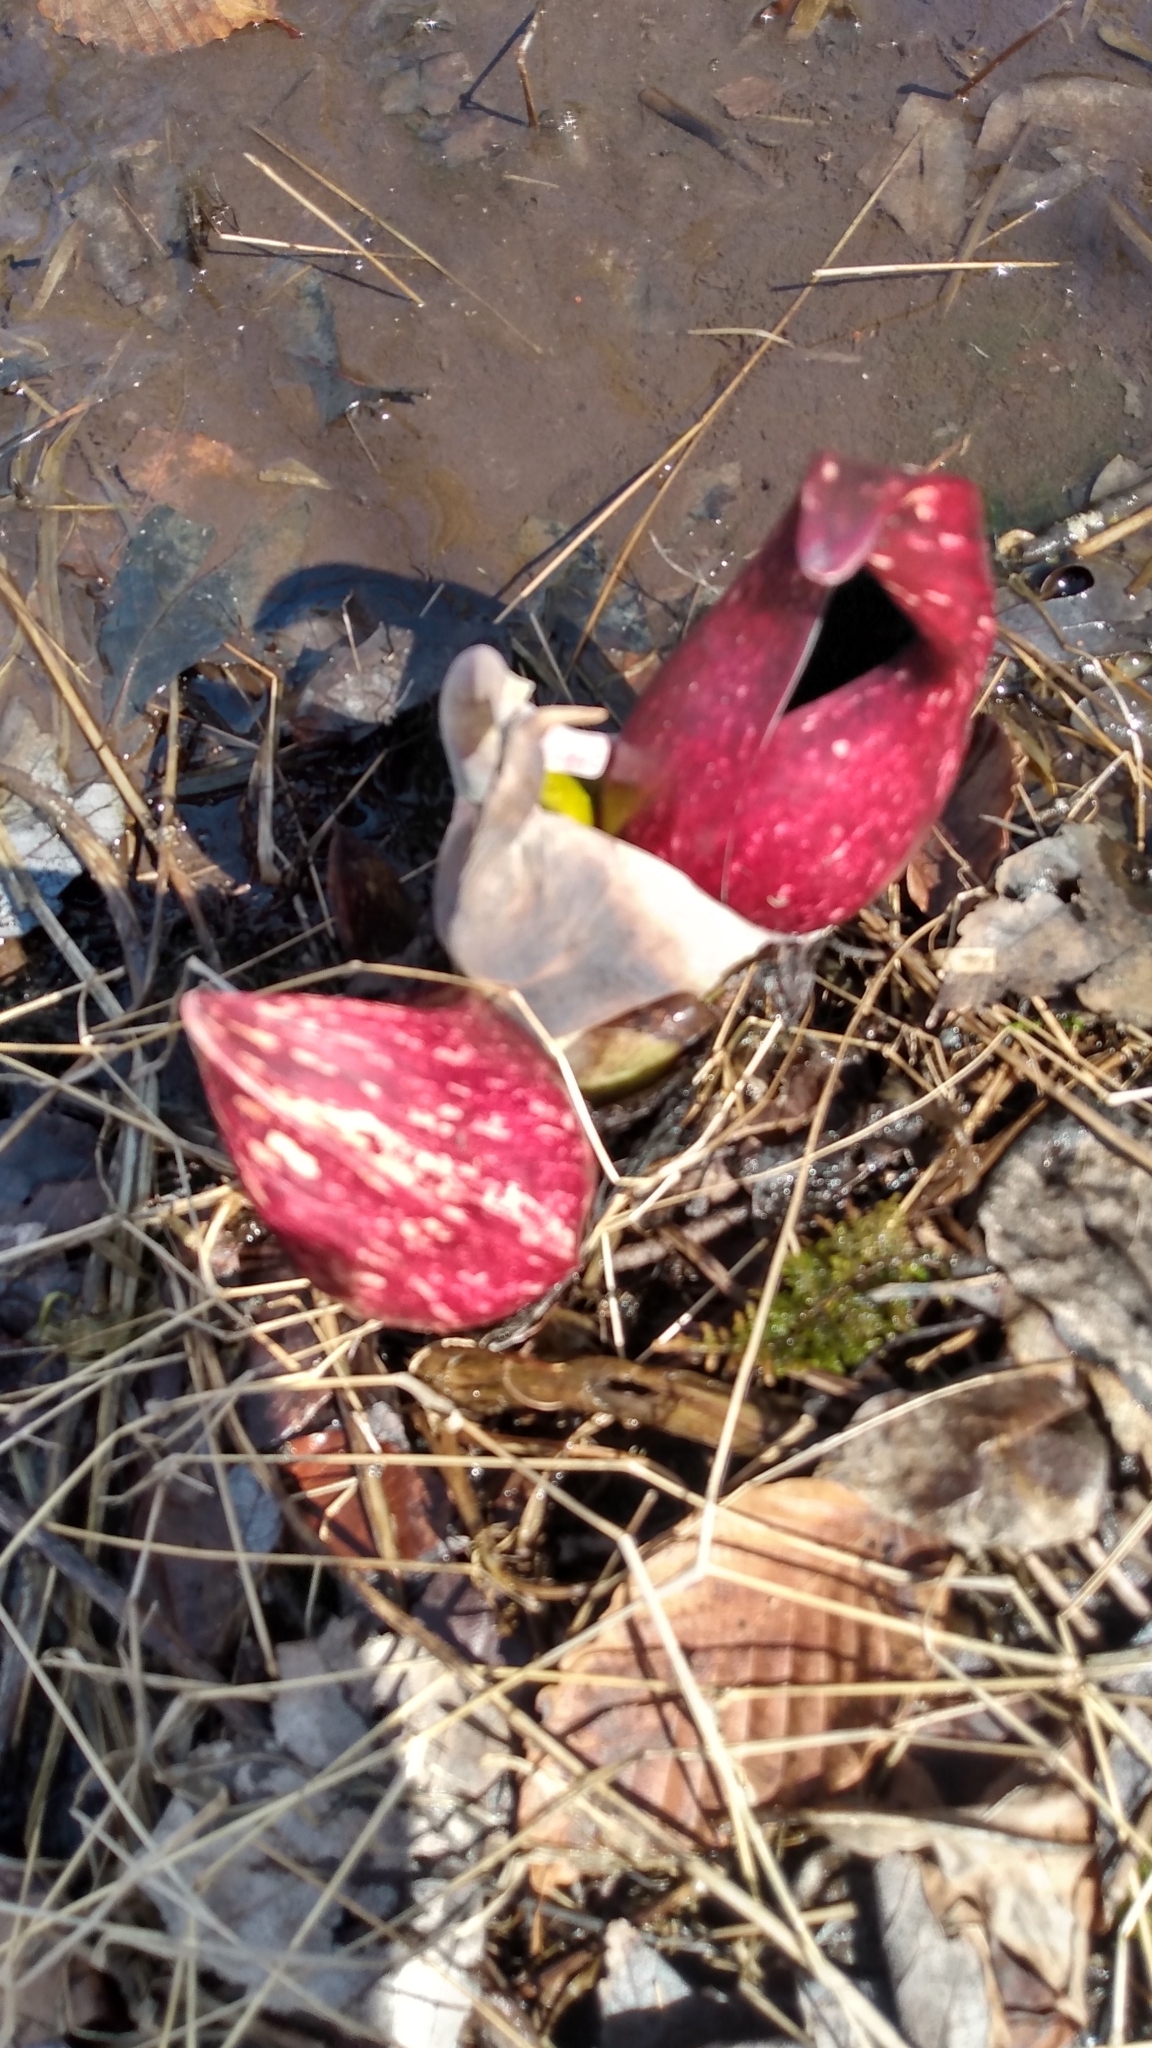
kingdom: Plantae
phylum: Tracheophyta
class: Liliopsida
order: Alismatales
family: Araceae
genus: Symplocarpus
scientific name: Symplocarpus foetidus
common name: Eastern skunk cabbage
